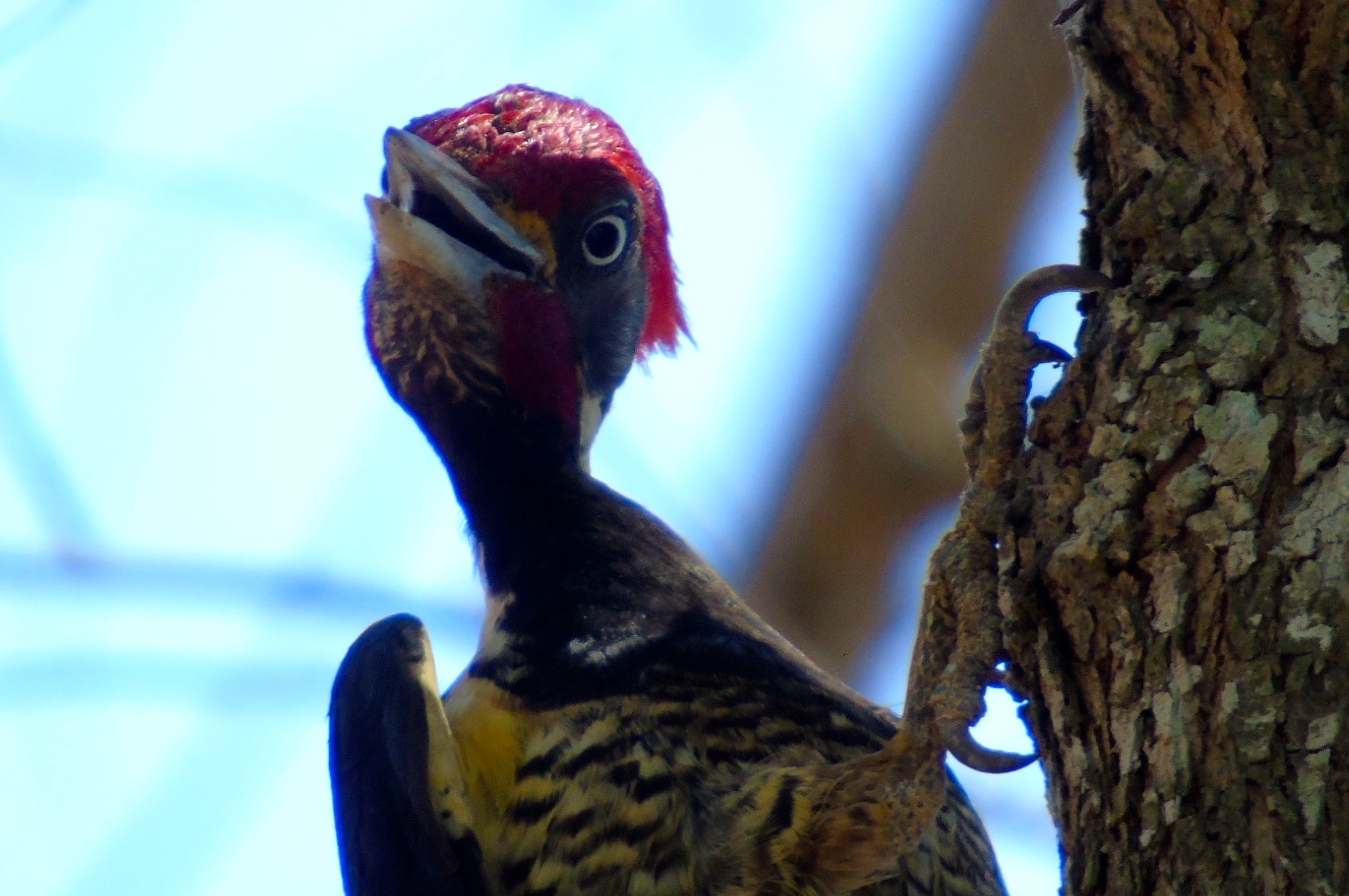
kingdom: Animalia
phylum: Chordata
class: Aves
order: Piciformes
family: Picidae
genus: Dryocopus
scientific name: Dryocopus lineatus
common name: Lineated woodpecker
